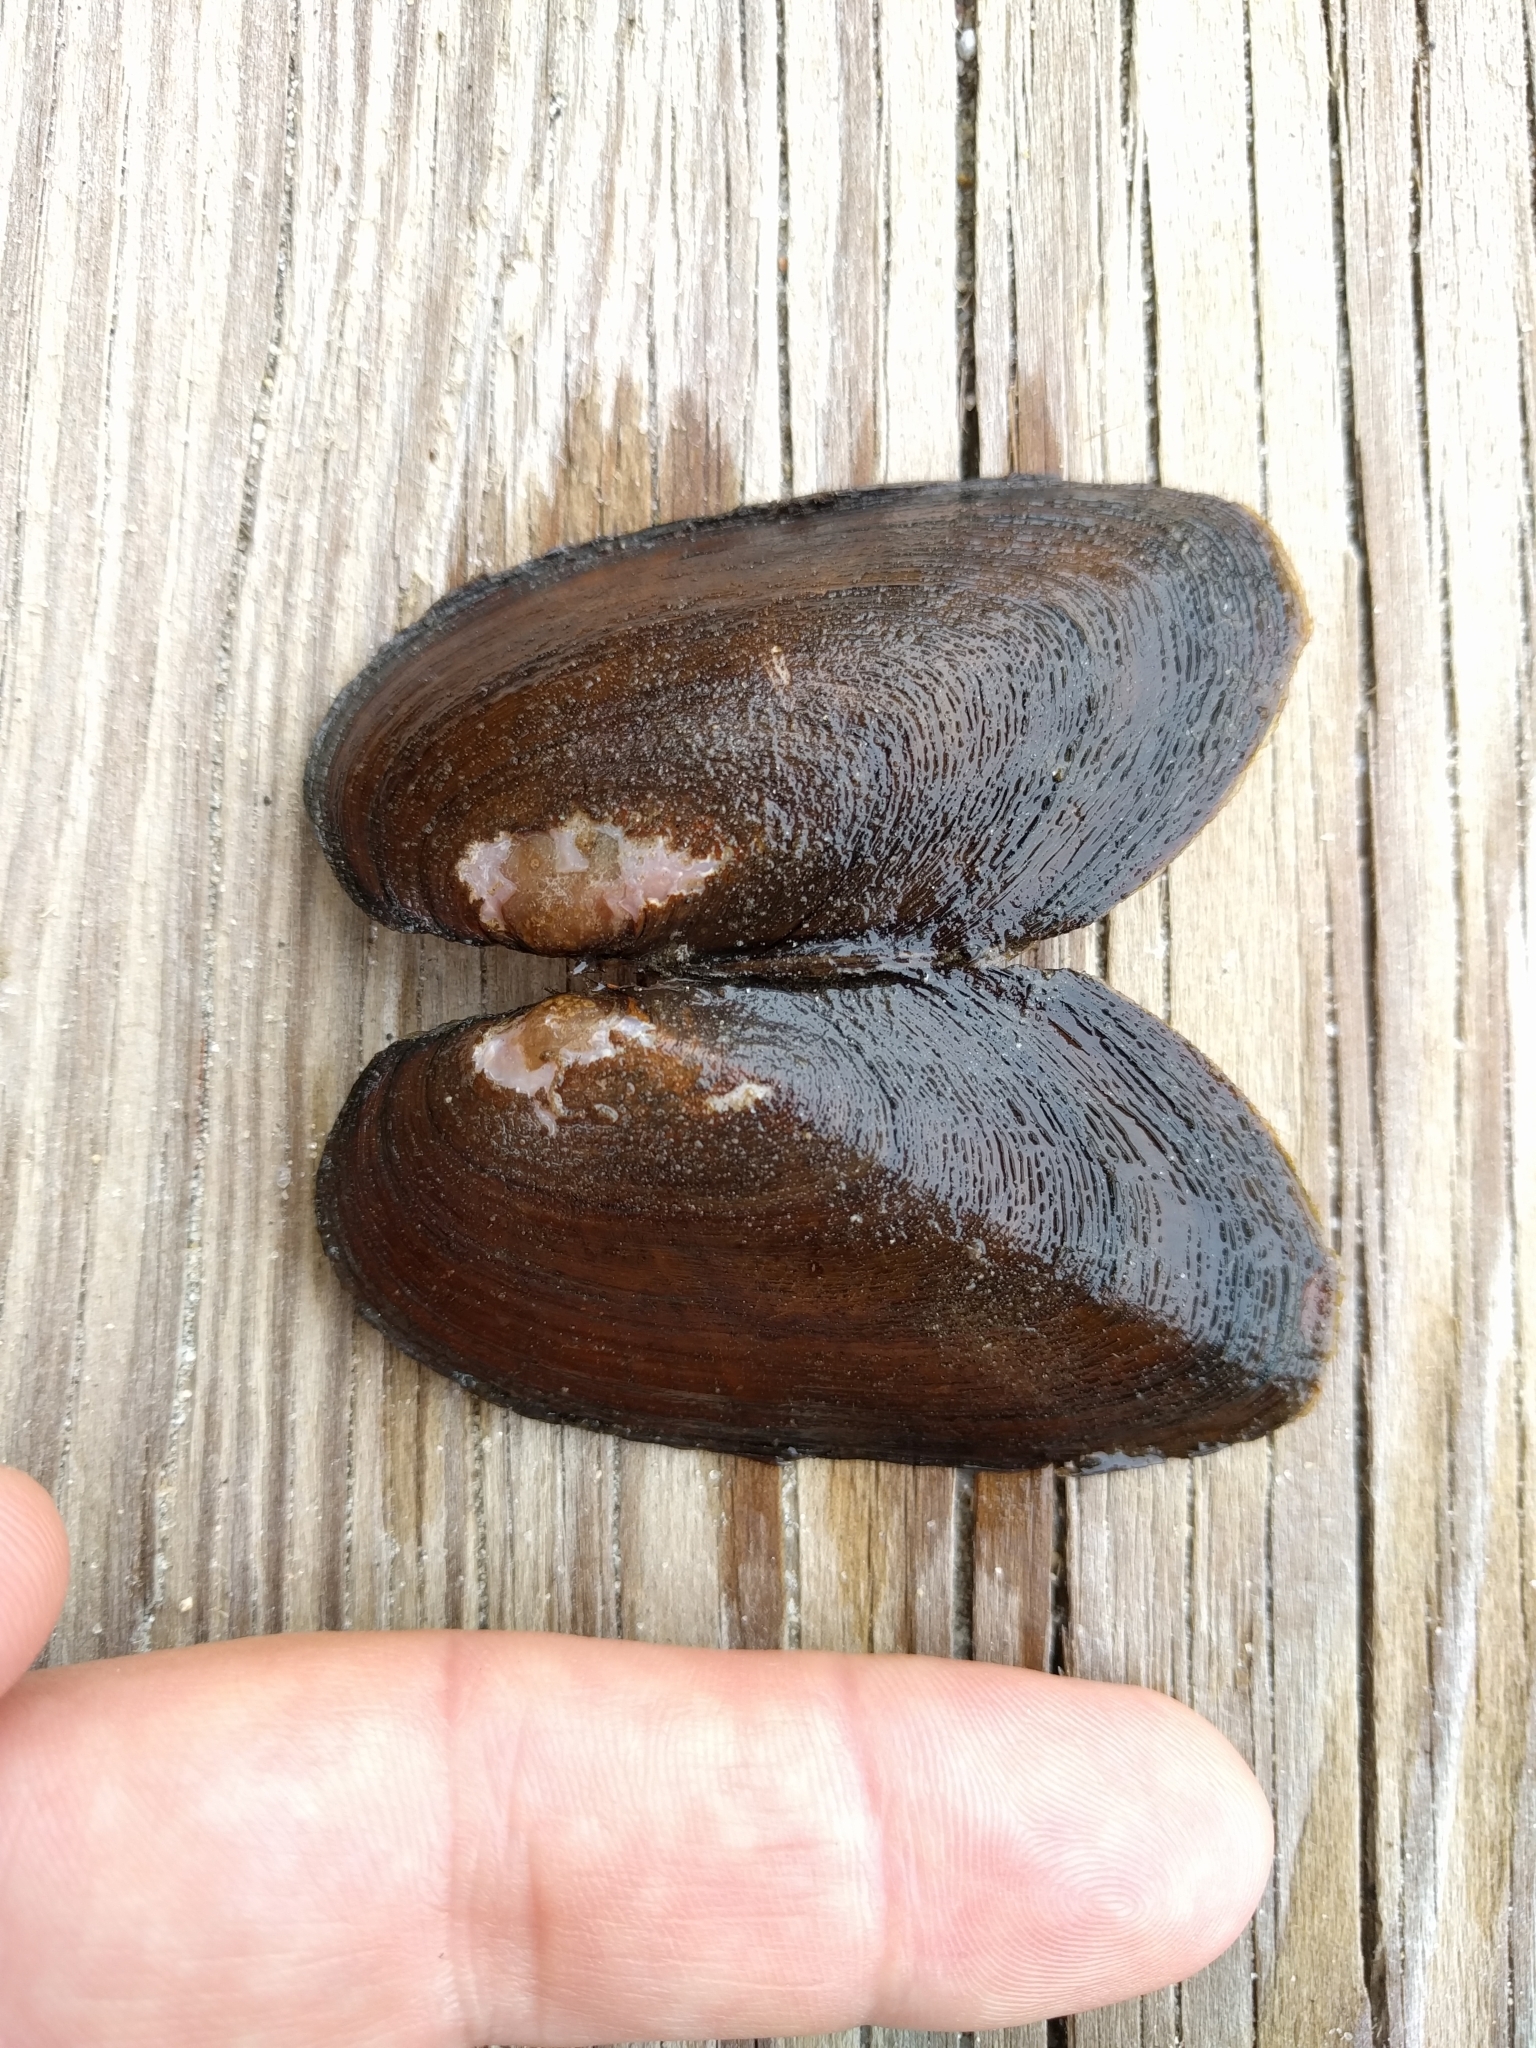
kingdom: Animalia
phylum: Mollusca
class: Bivalvia
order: Unionida
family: Unionidae
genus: Elliptio
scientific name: Elliptio complanata
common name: Eastern elliptio
